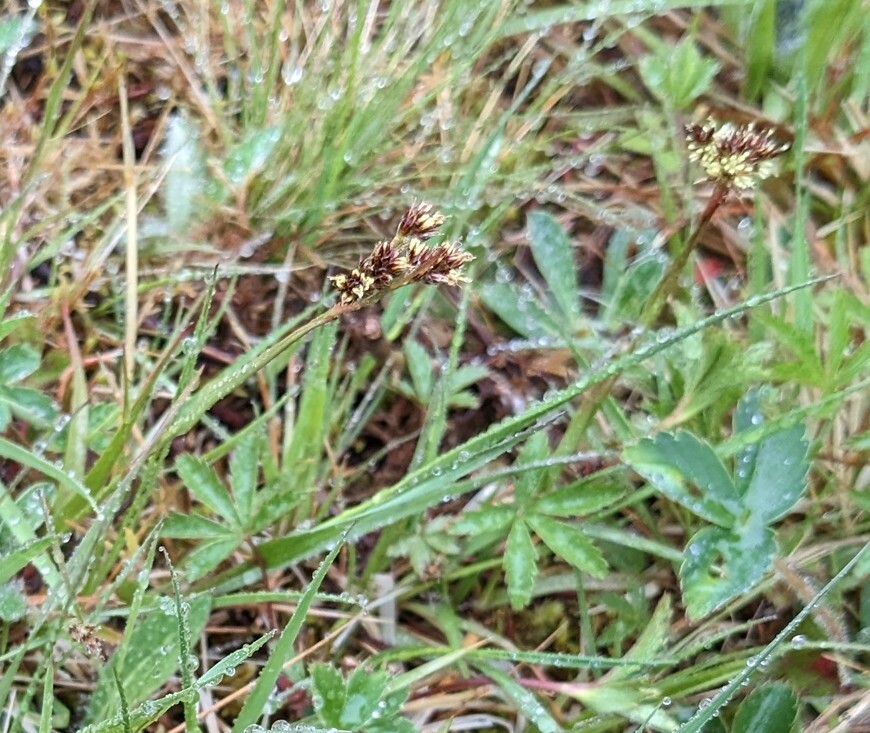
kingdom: Plantae
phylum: Tracheophyta
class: Liliopsida
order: Poales
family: Juncaceae
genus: Luzula
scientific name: Luzula multiflora
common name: Heath wood-rush
